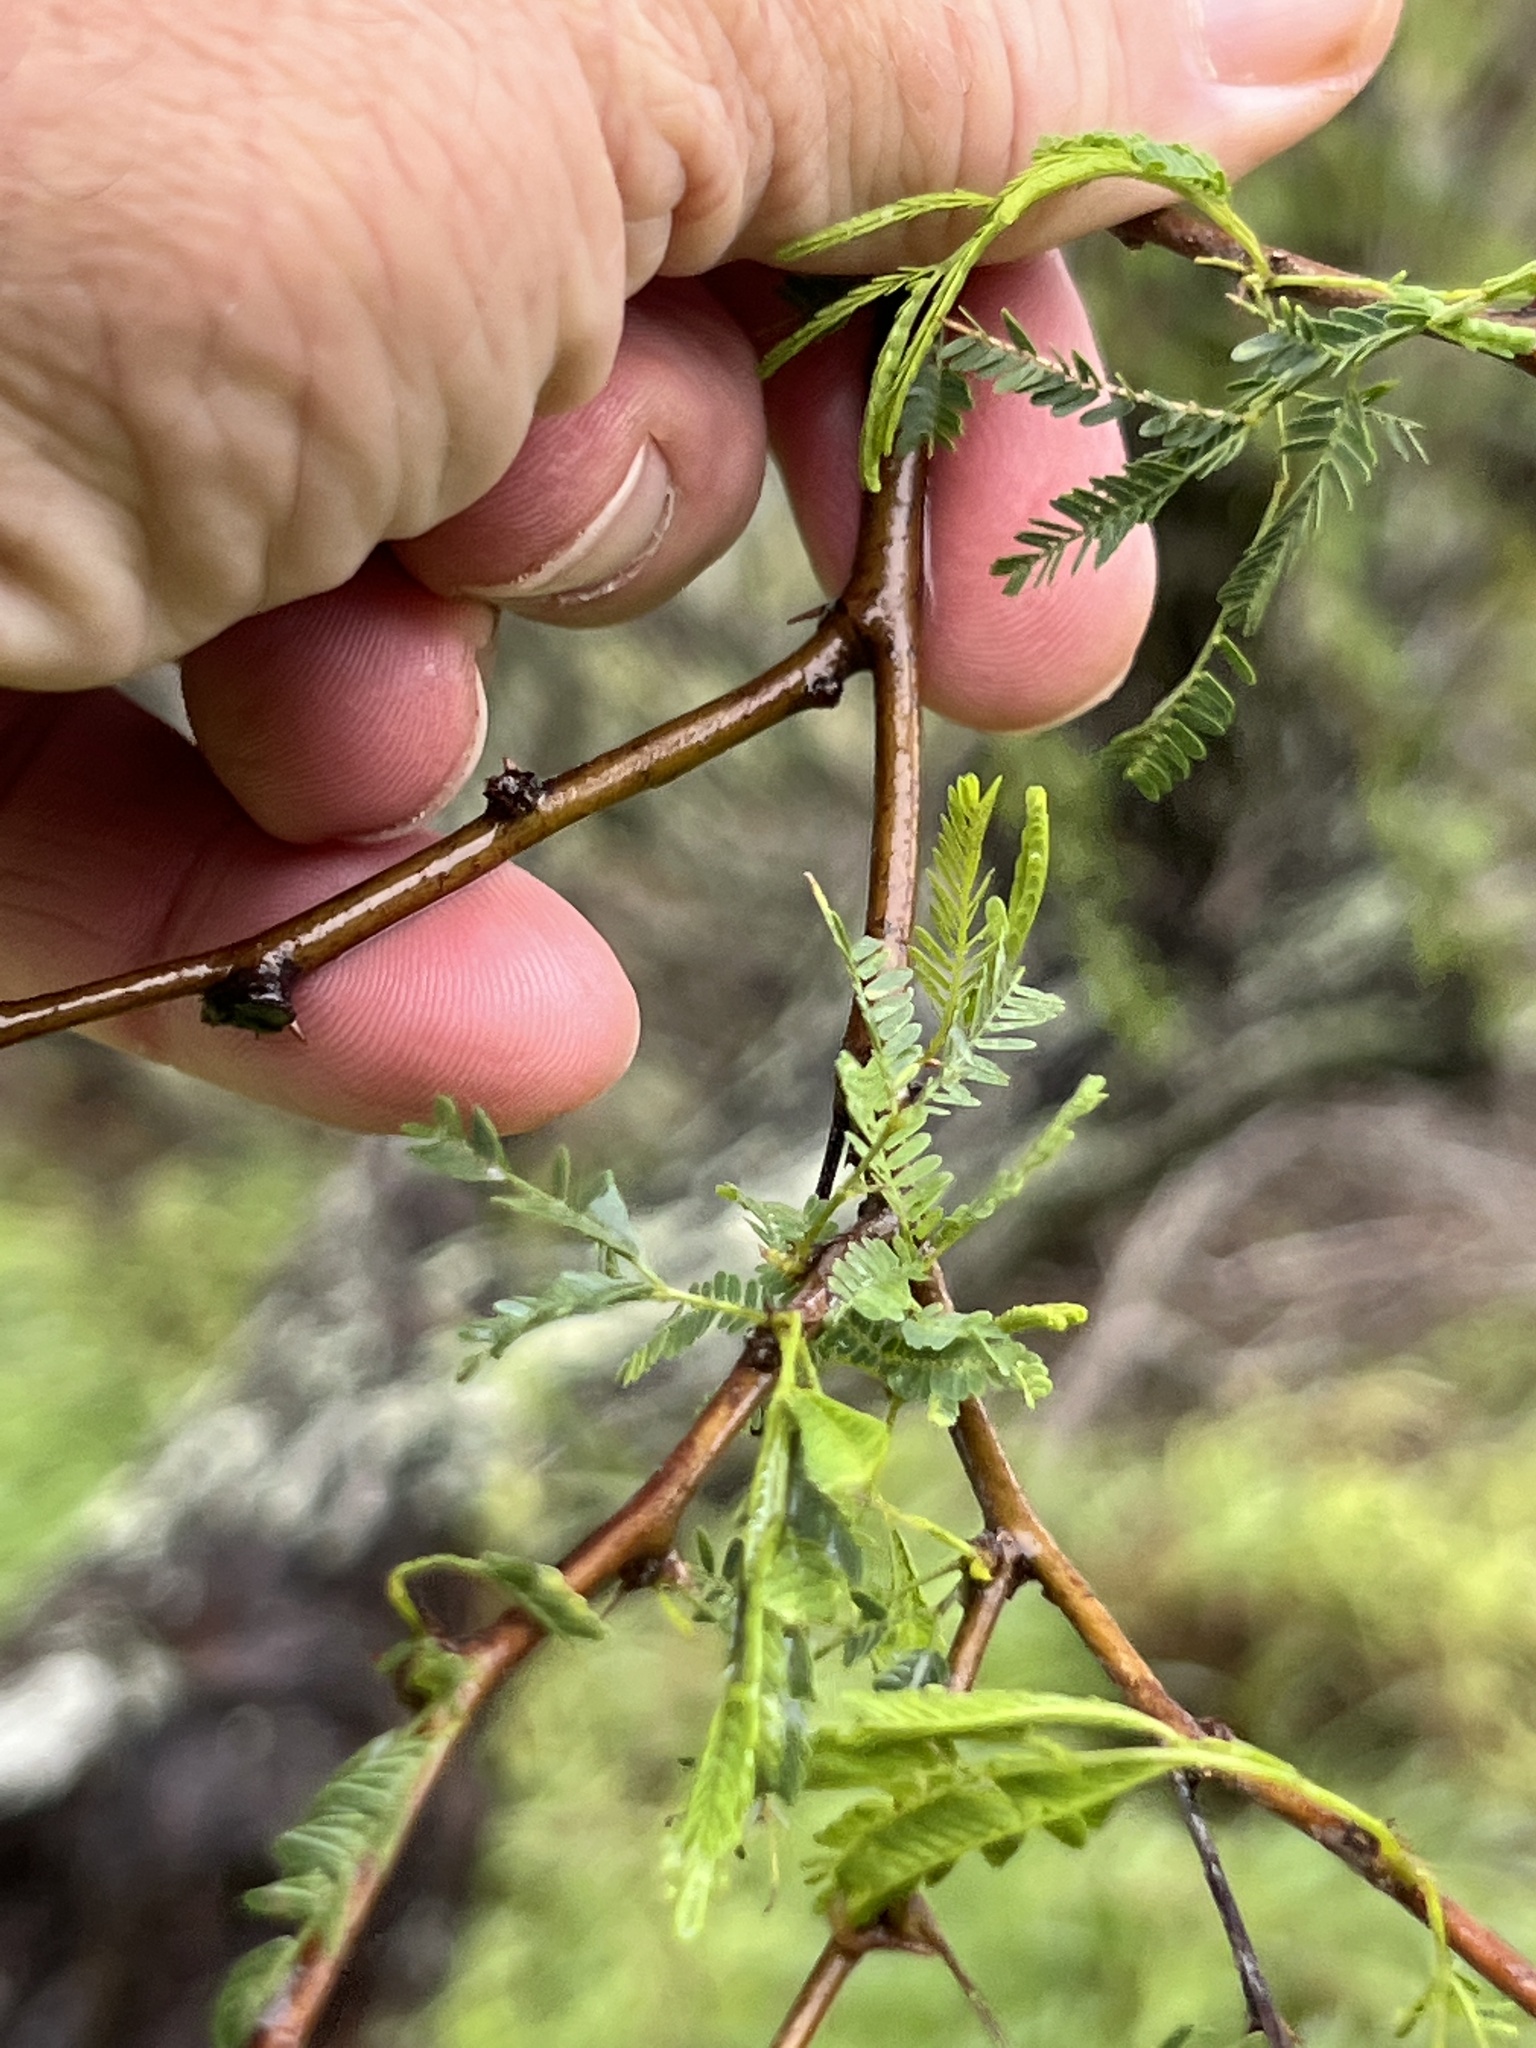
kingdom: Plantae
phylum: Tracheophyta
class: Magnoliopsida
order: Fabales
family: Fabaceae
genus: Vachellia
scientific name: Vachellia schaffneri
